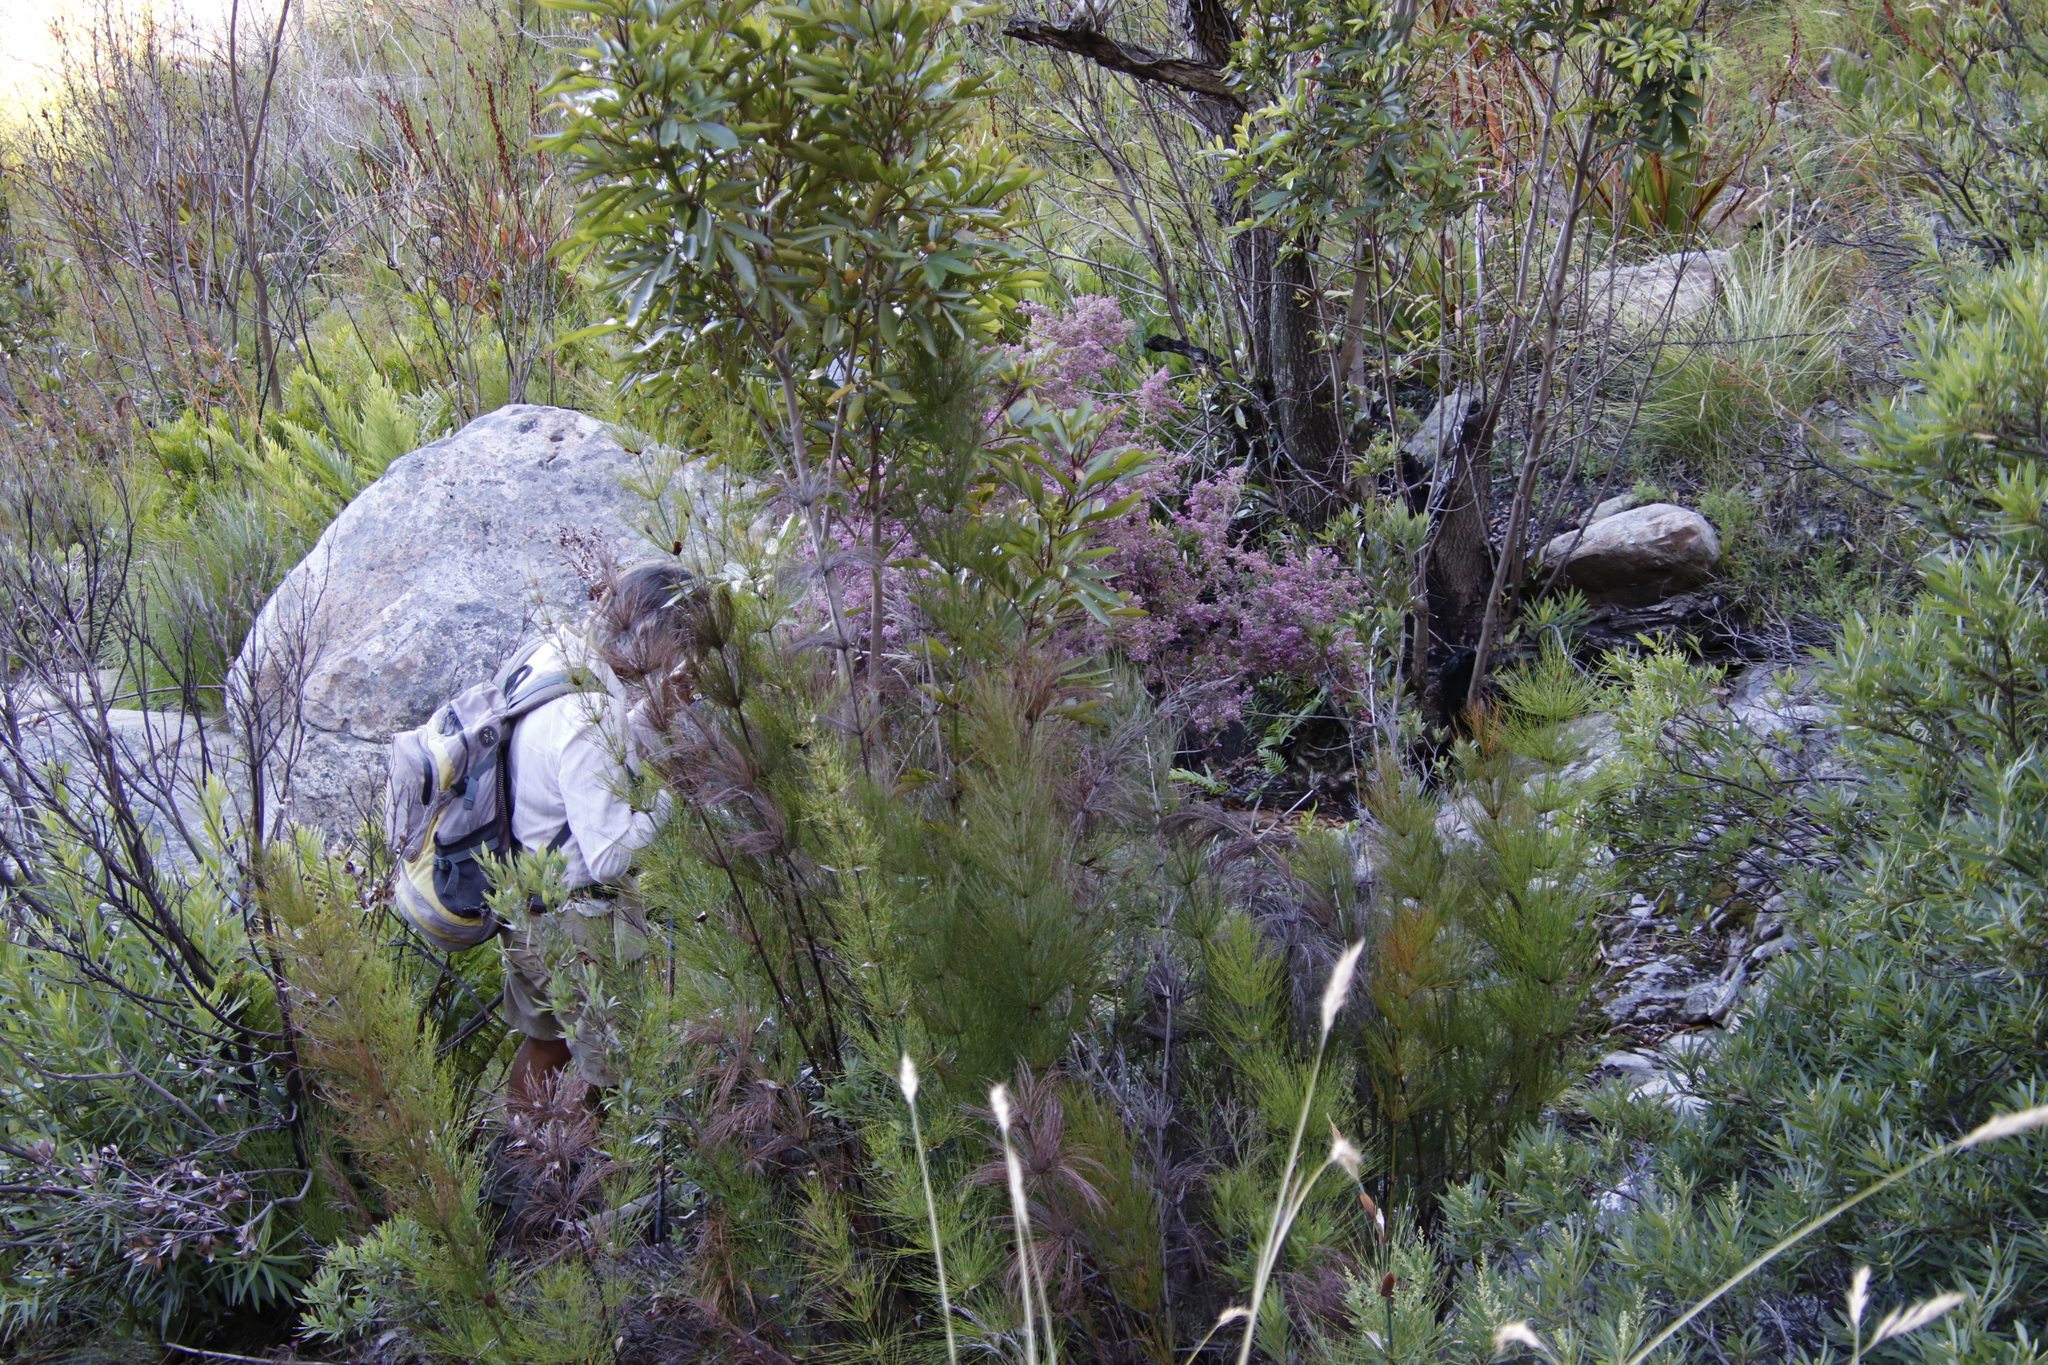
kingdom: Plantae
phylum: Tracheophyta
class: Magnoliopsida
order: Ericales
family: Ericaceae
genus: Erica
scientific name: Erica bergiana
